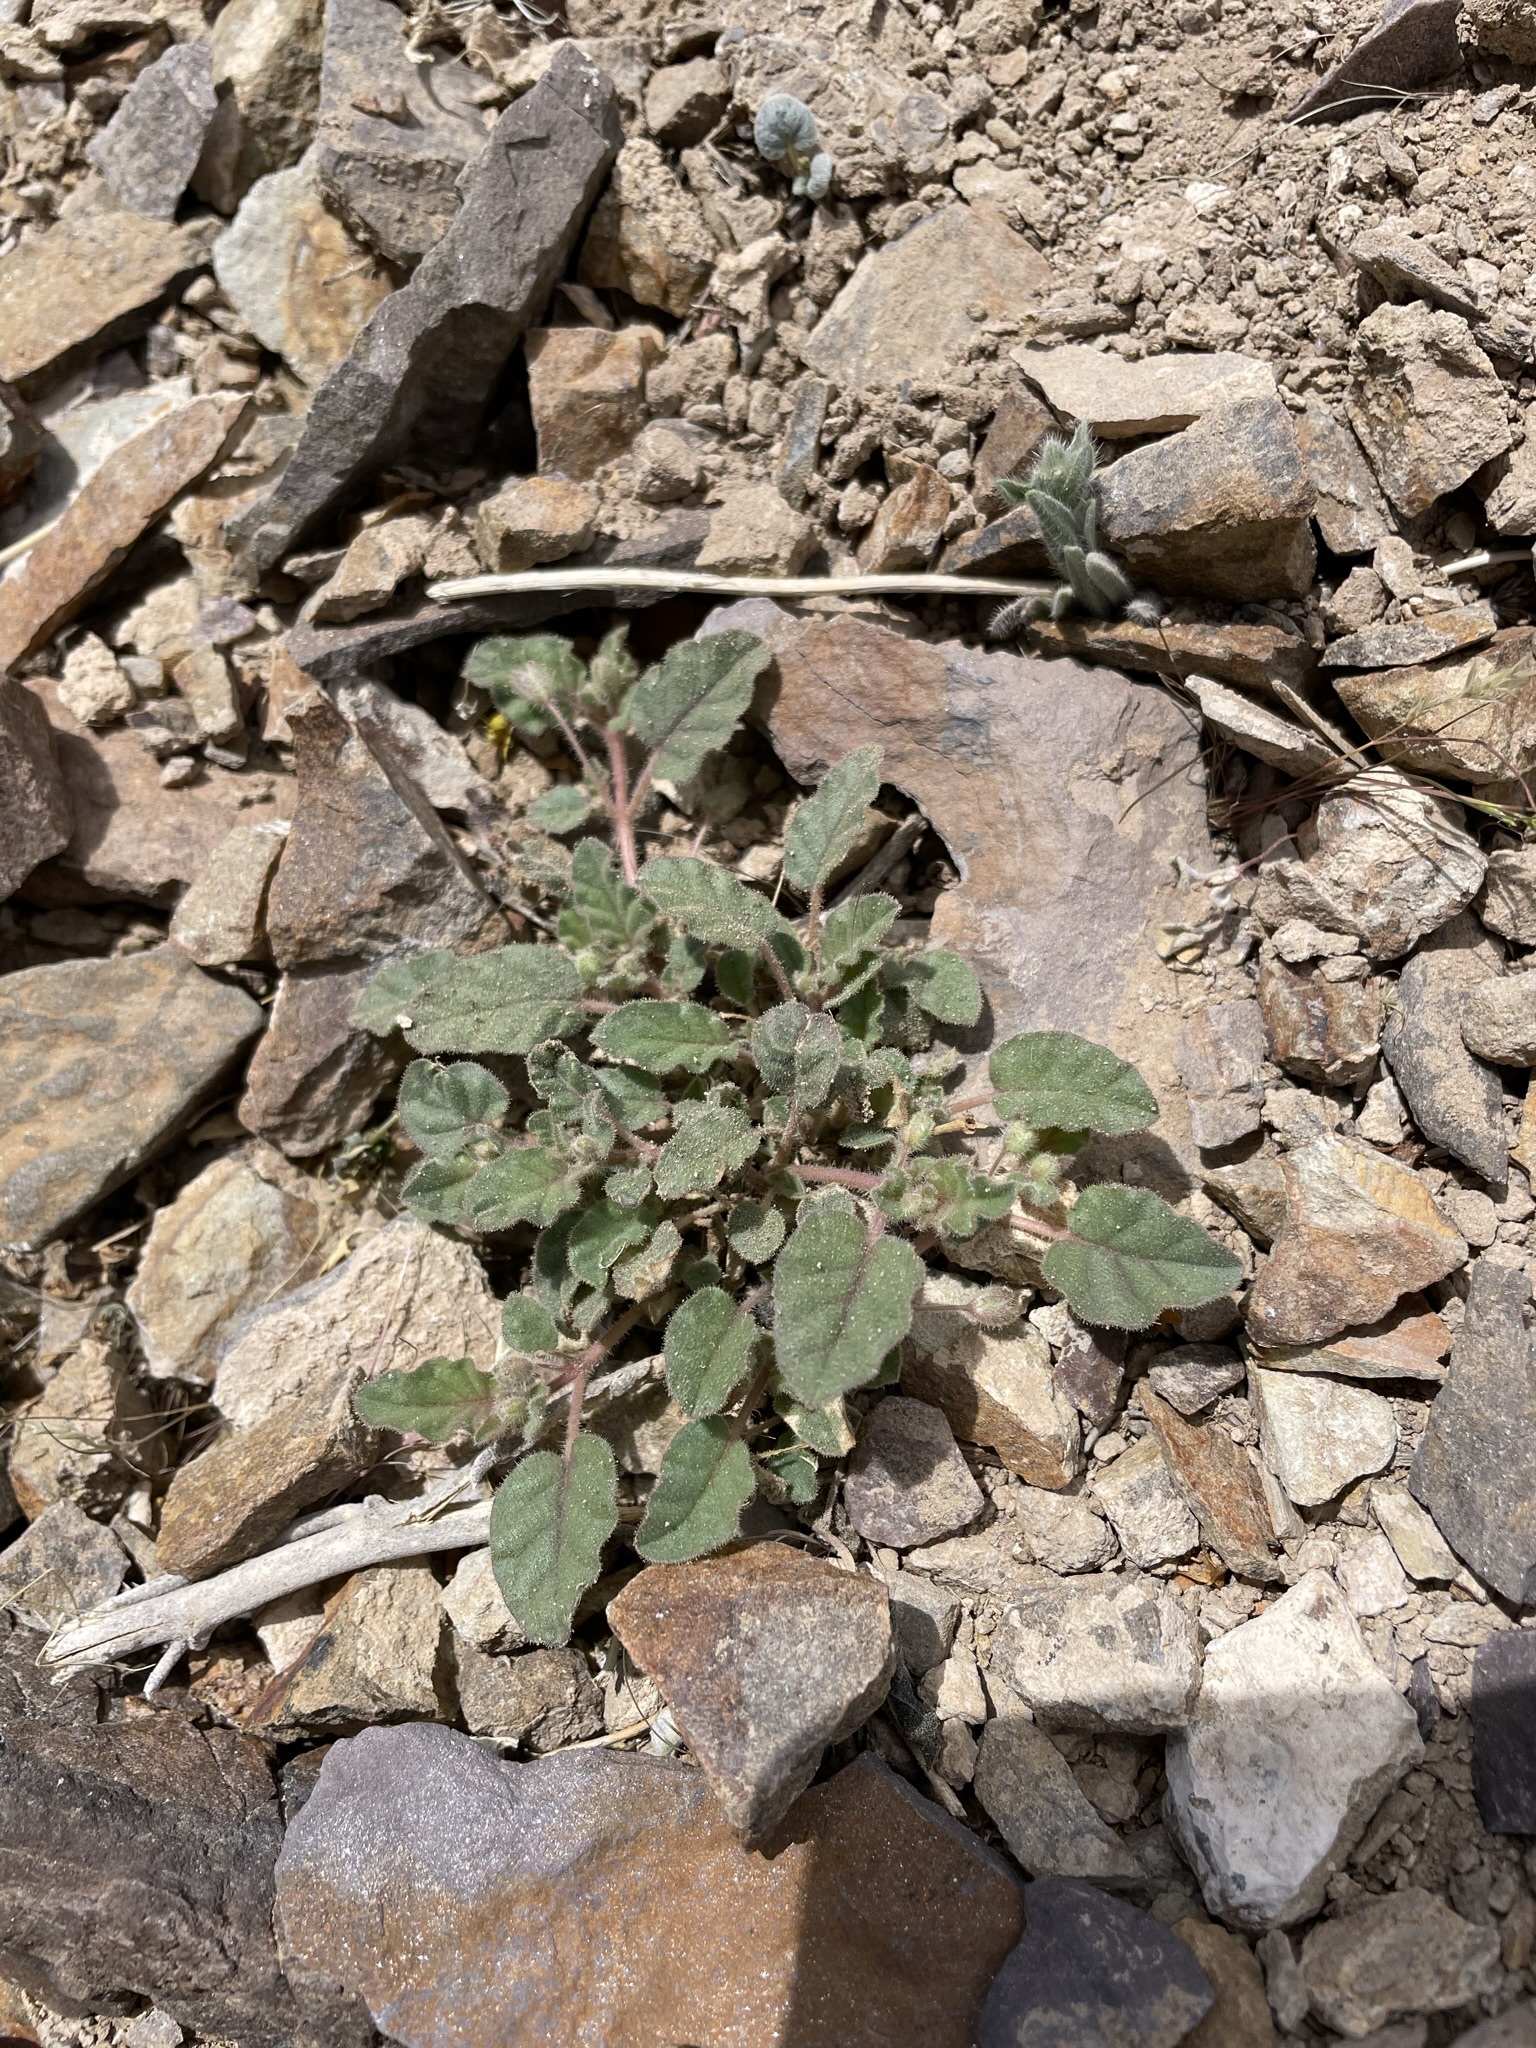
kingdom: Plantae
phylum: Tracheophyta
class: Magnoliopsida
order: Caryophyllales
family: Nyctaginaceae
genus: Allionia
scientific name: Allionia incarnata
